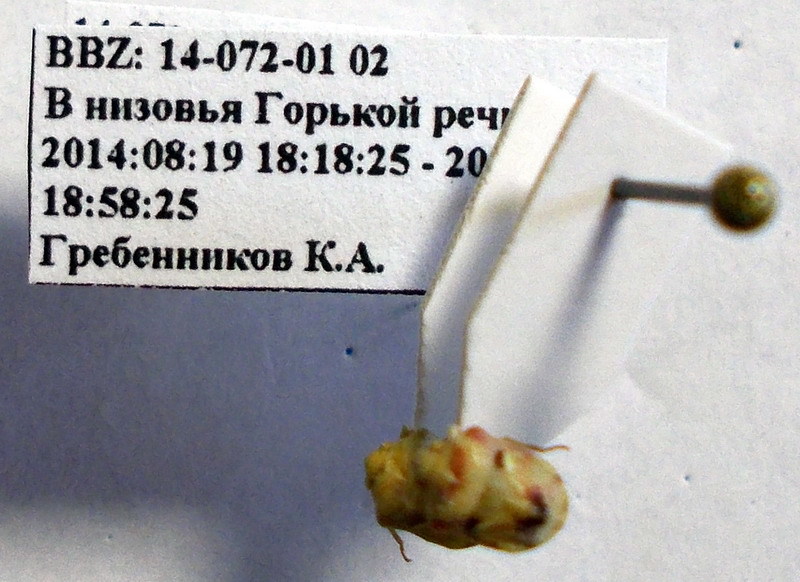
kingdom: Animalia
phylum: Arthropoda
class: Insecta
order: Hemiptera
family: Pentatomidae
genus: Tarisa
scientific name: Tarisa salsolae
